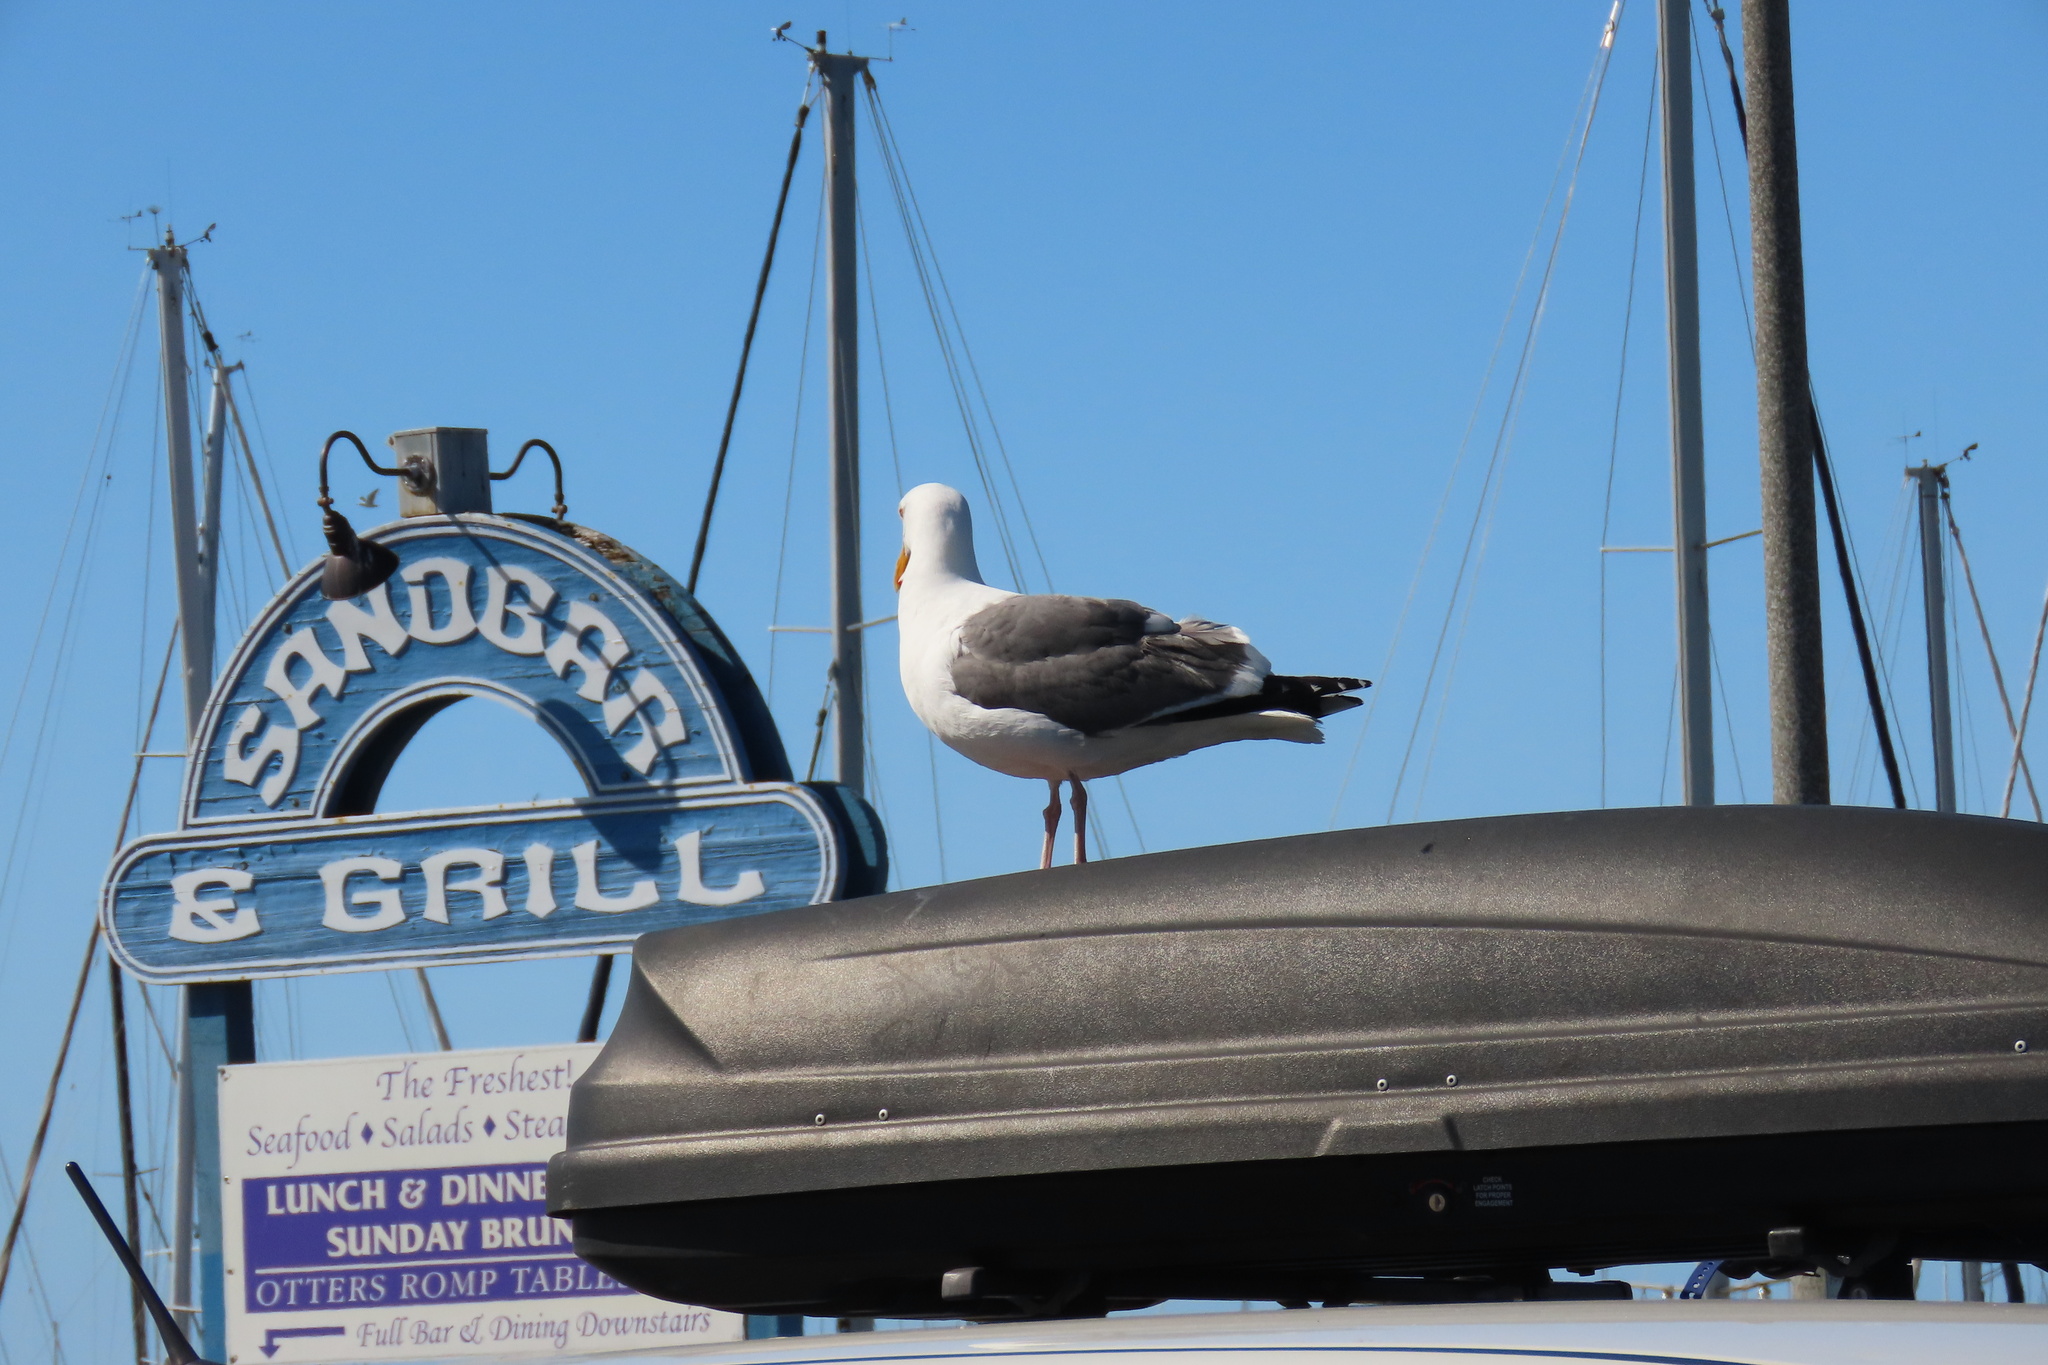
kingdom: Animalia
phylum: Chordata
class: Aves
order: Charadriiformes
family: Laridae
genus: Larus
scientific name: Larus occidentalis
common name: Western gull
